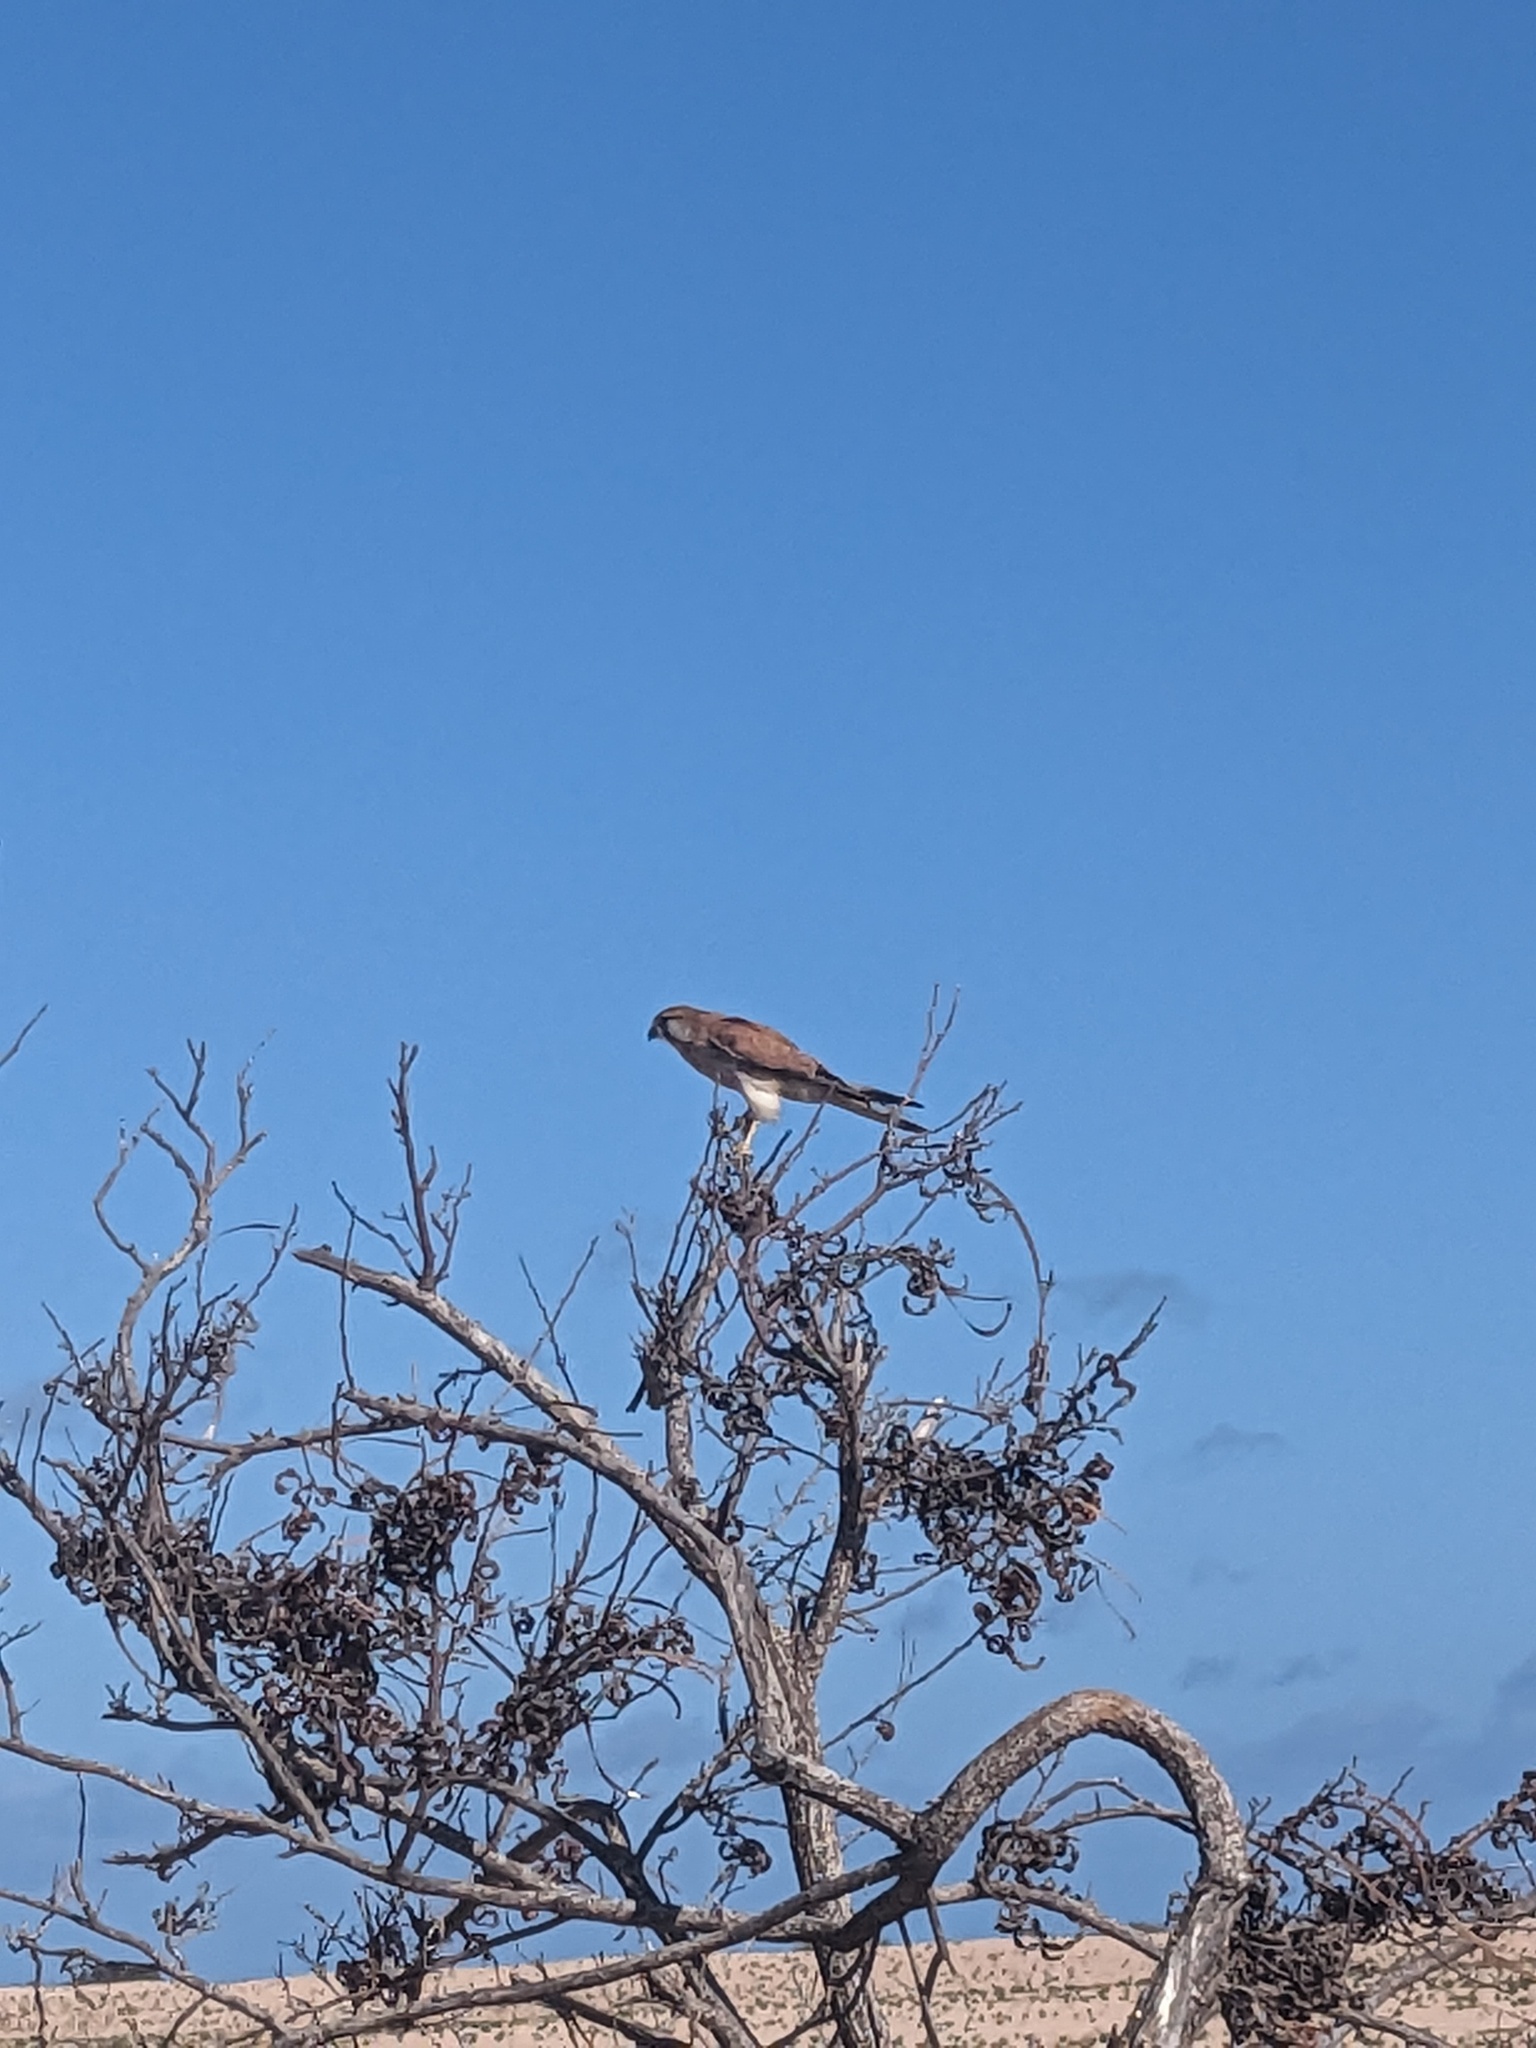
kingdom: Animalia
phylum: Chordata
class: Aves
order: Falconiformes
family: Falconidae
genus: Falco
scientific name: Falco cenchroides
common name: Nankeen kestrel
